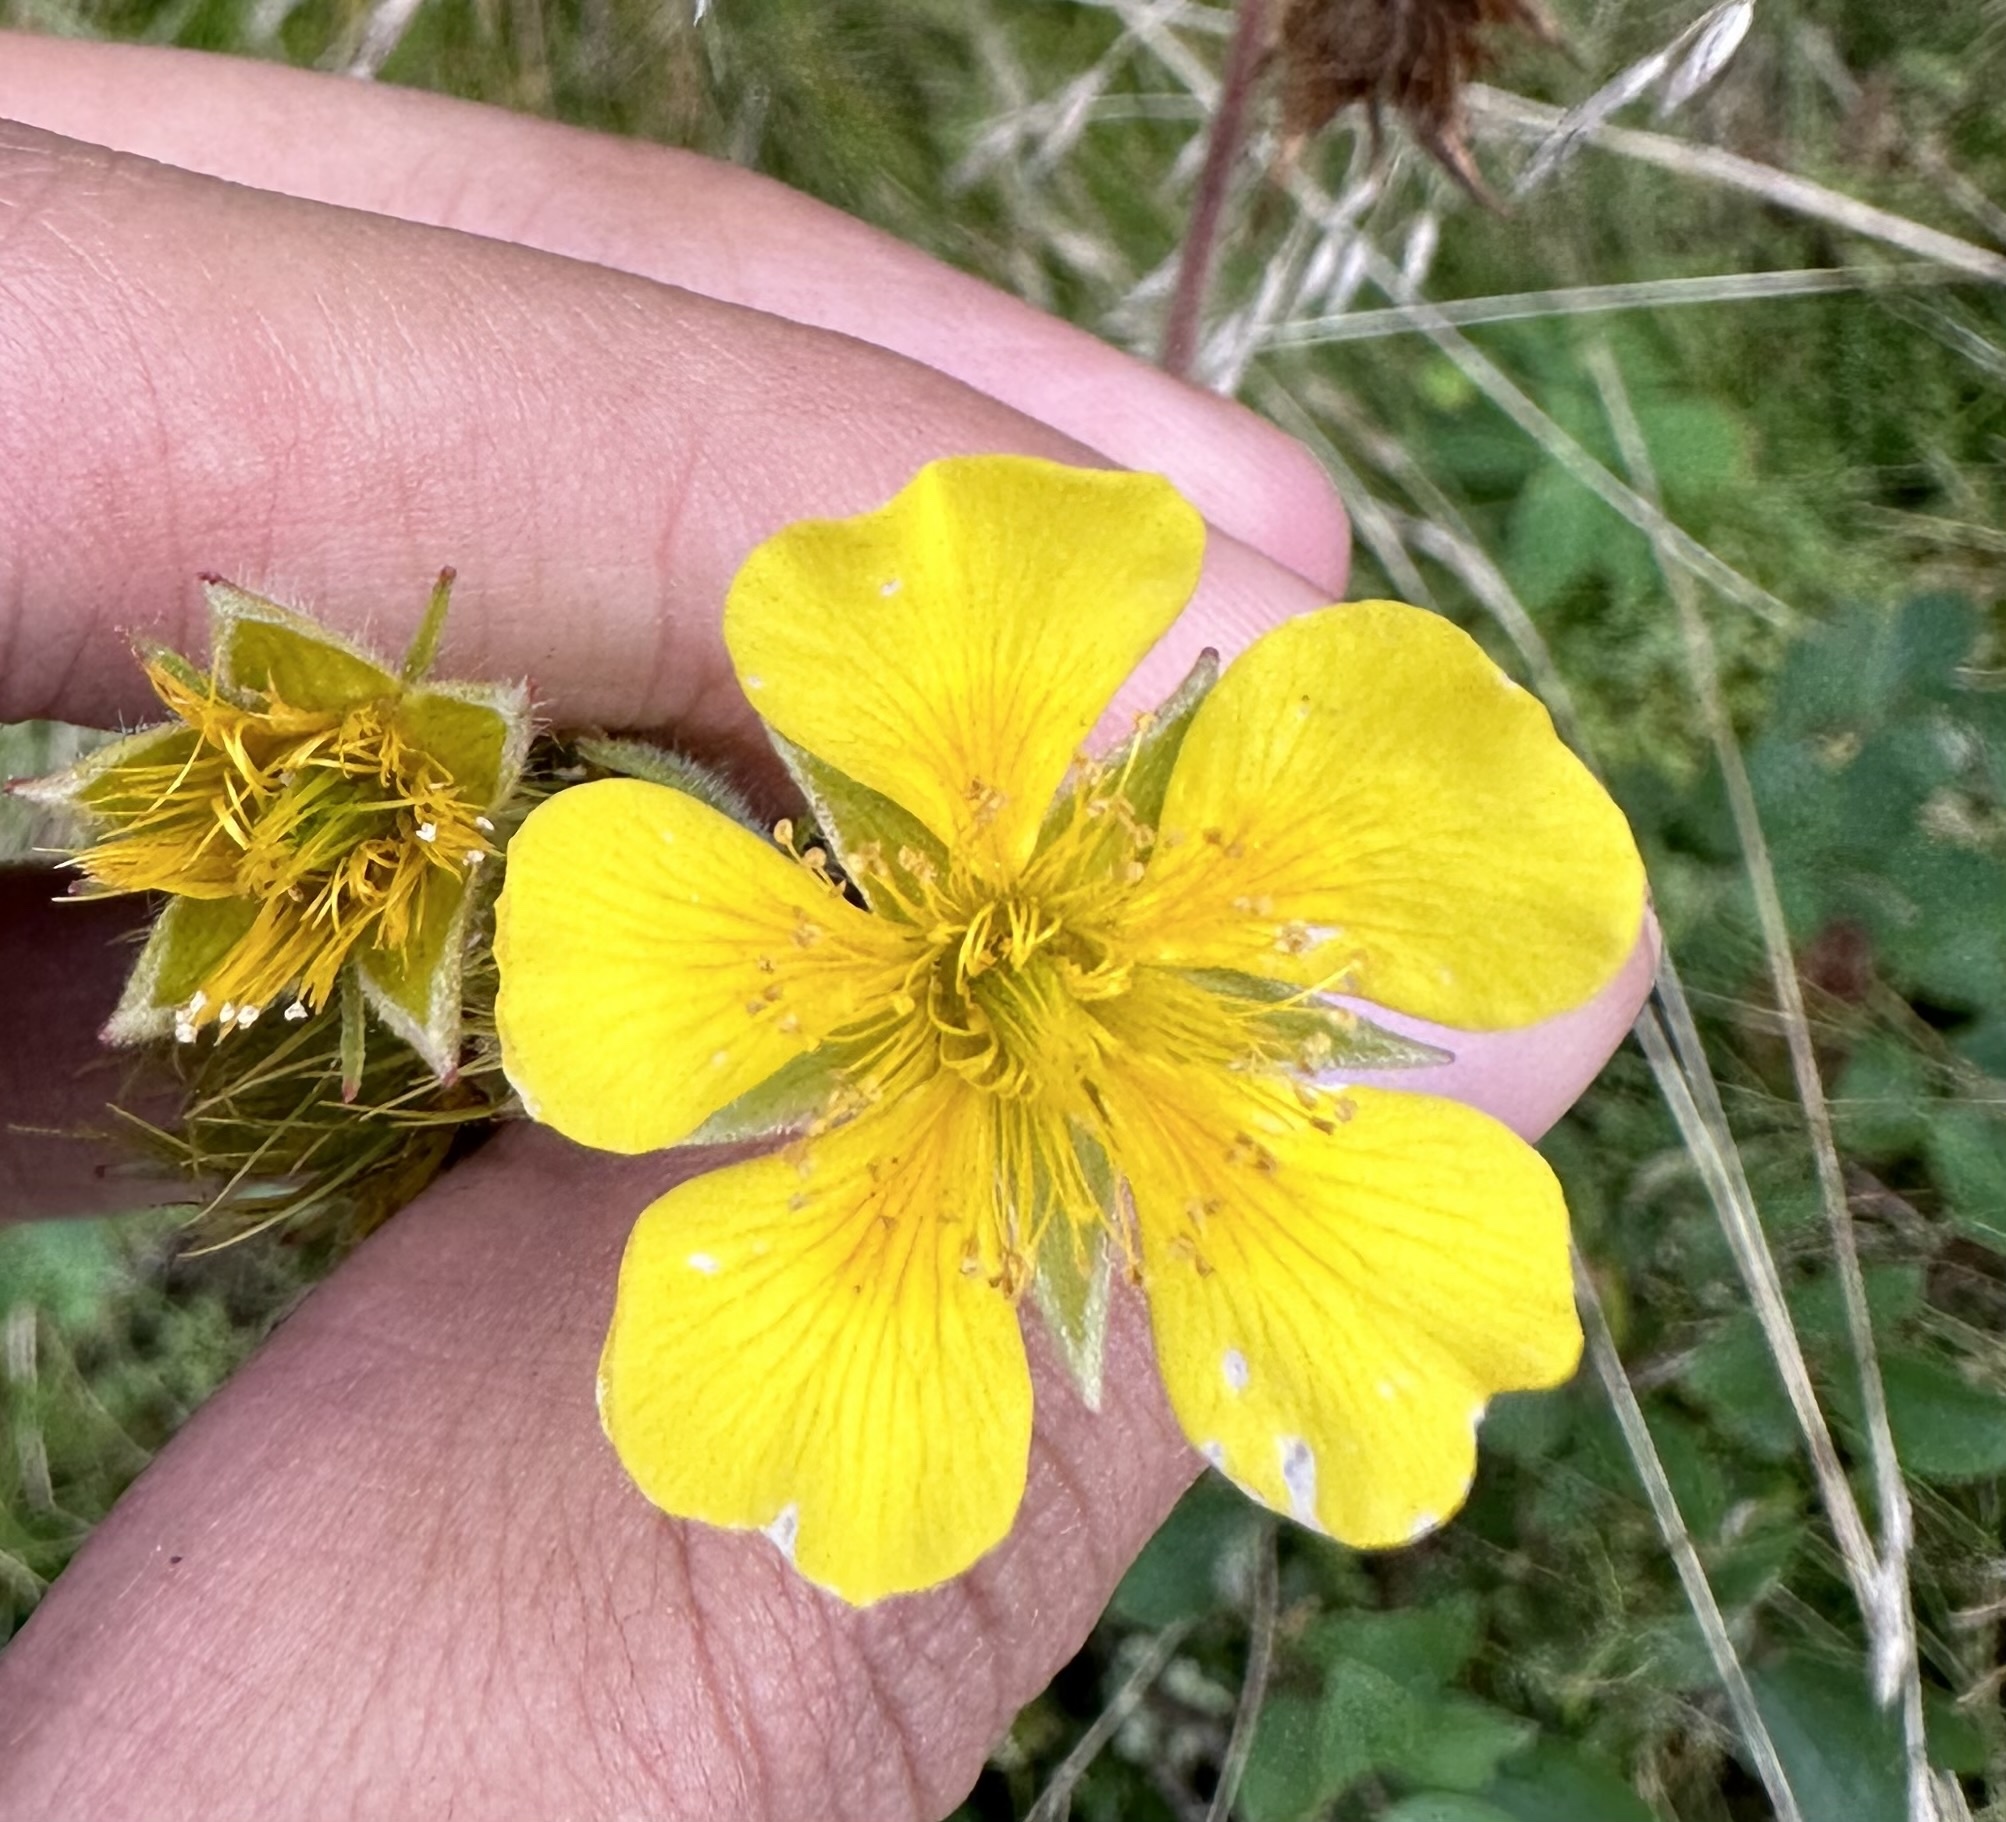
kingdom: Plantae
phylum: Tracheophyta
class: Magnoliopsida
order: Rosales
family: Rosaceae
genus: Geum
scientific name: Geum radiatum
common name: Spreaded avens
